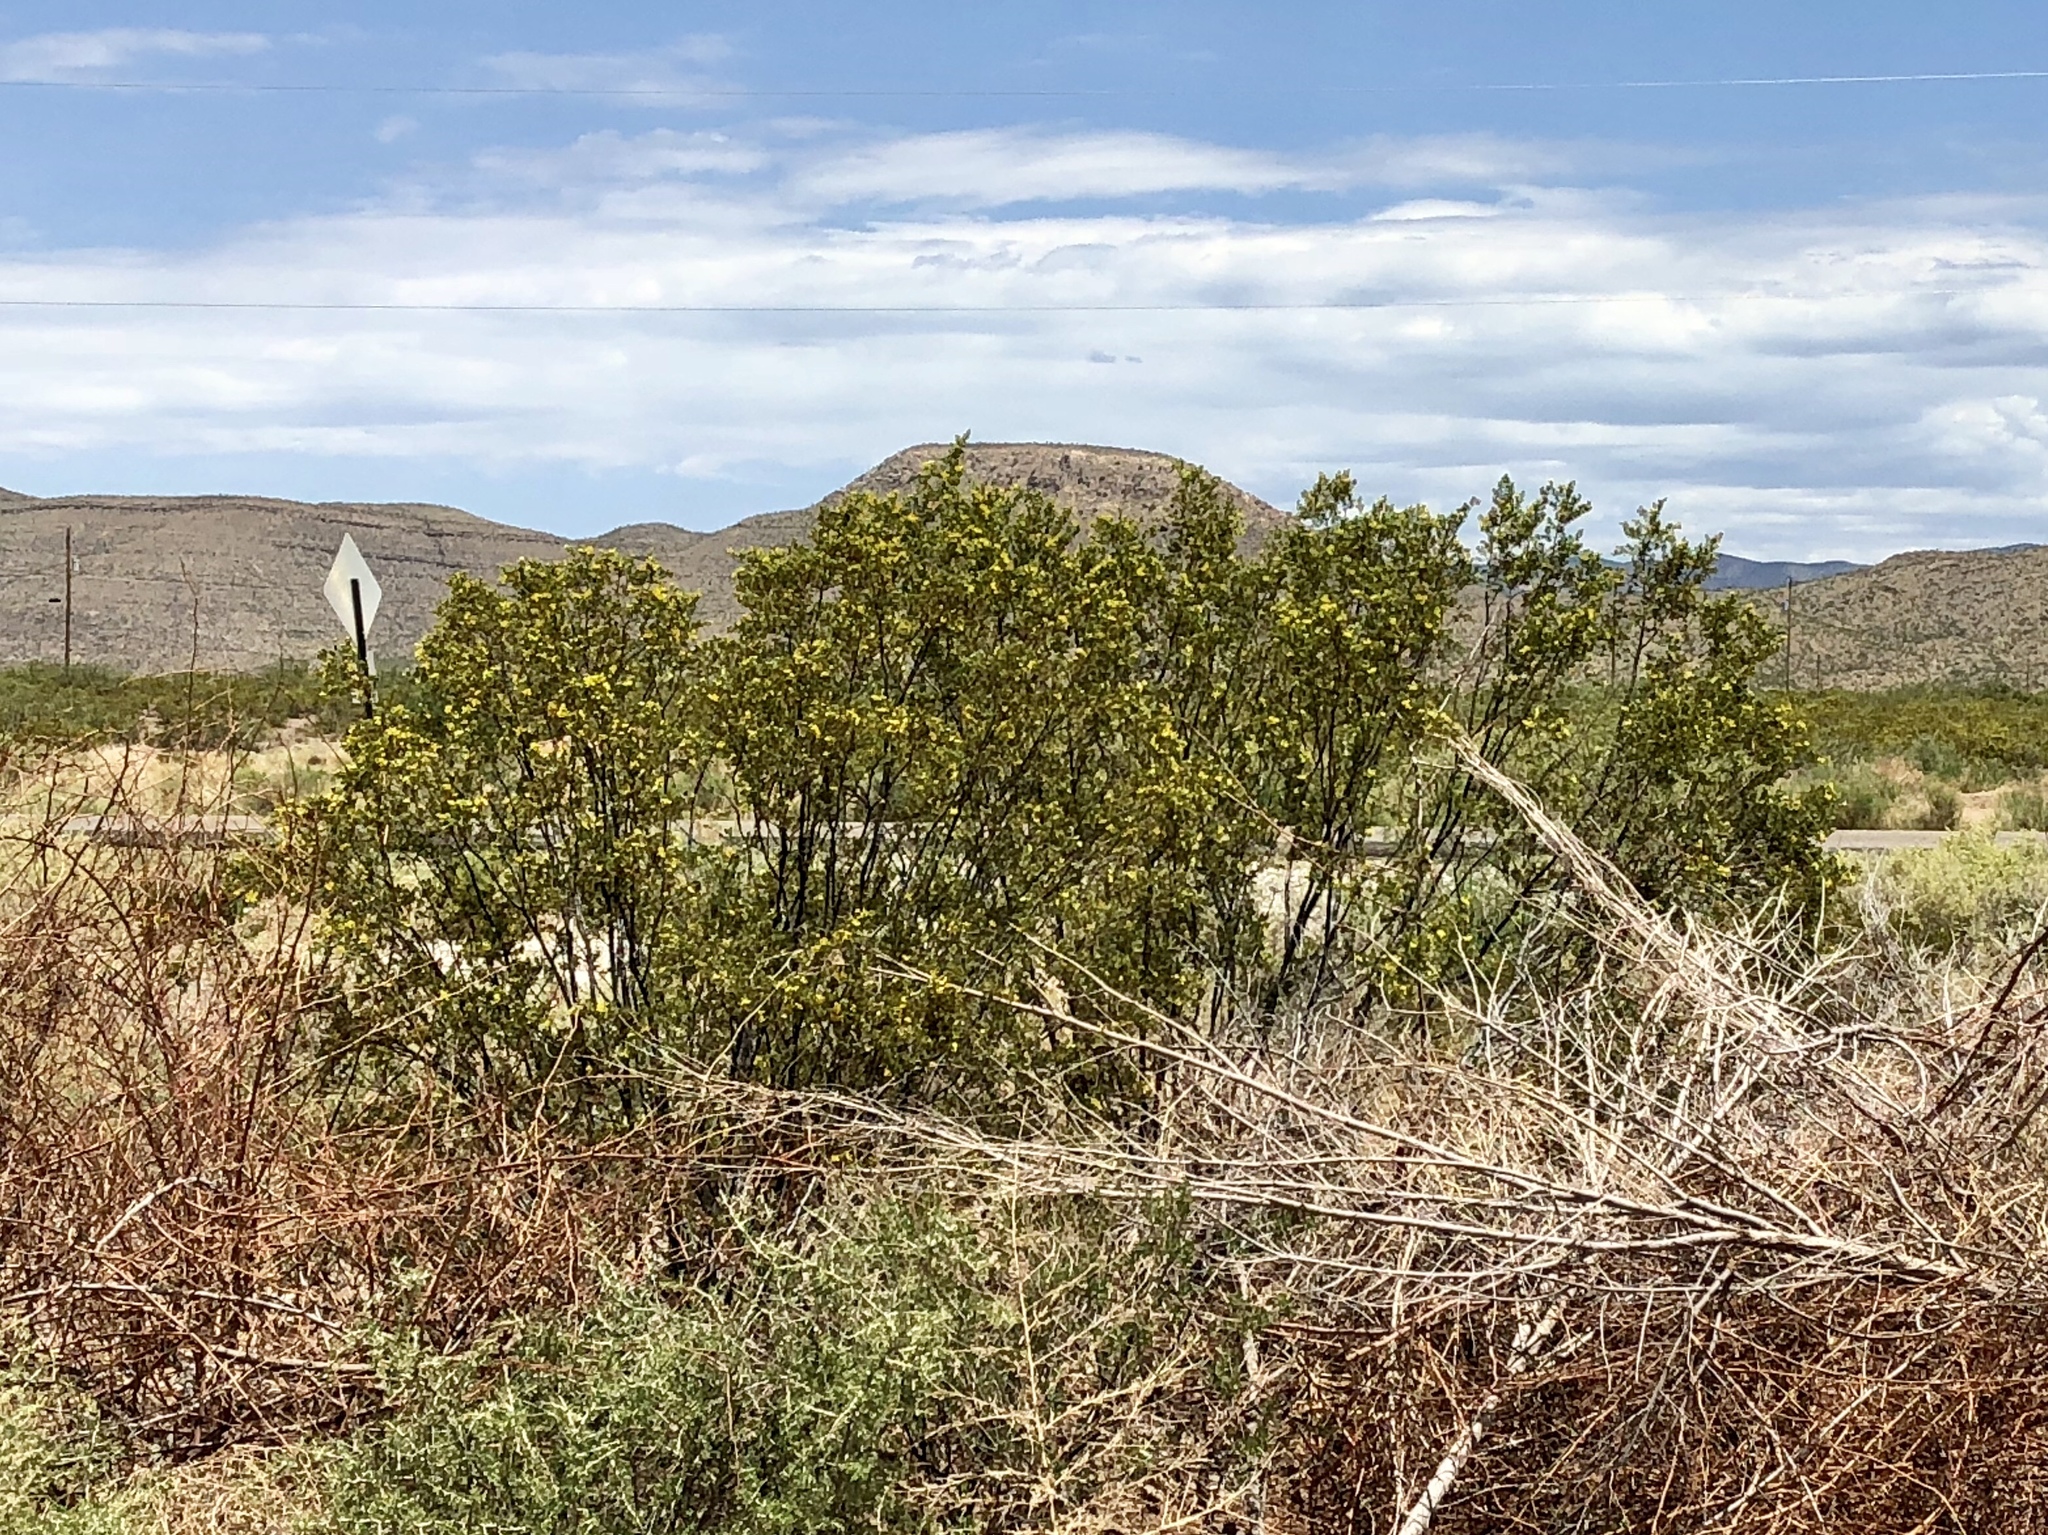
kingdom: Plantae
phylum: Tracheophyta
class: Magnoliopsida
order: Zygophyllales
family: Zygophyllaceae
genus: Larrea
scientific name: Larrea tridentata
